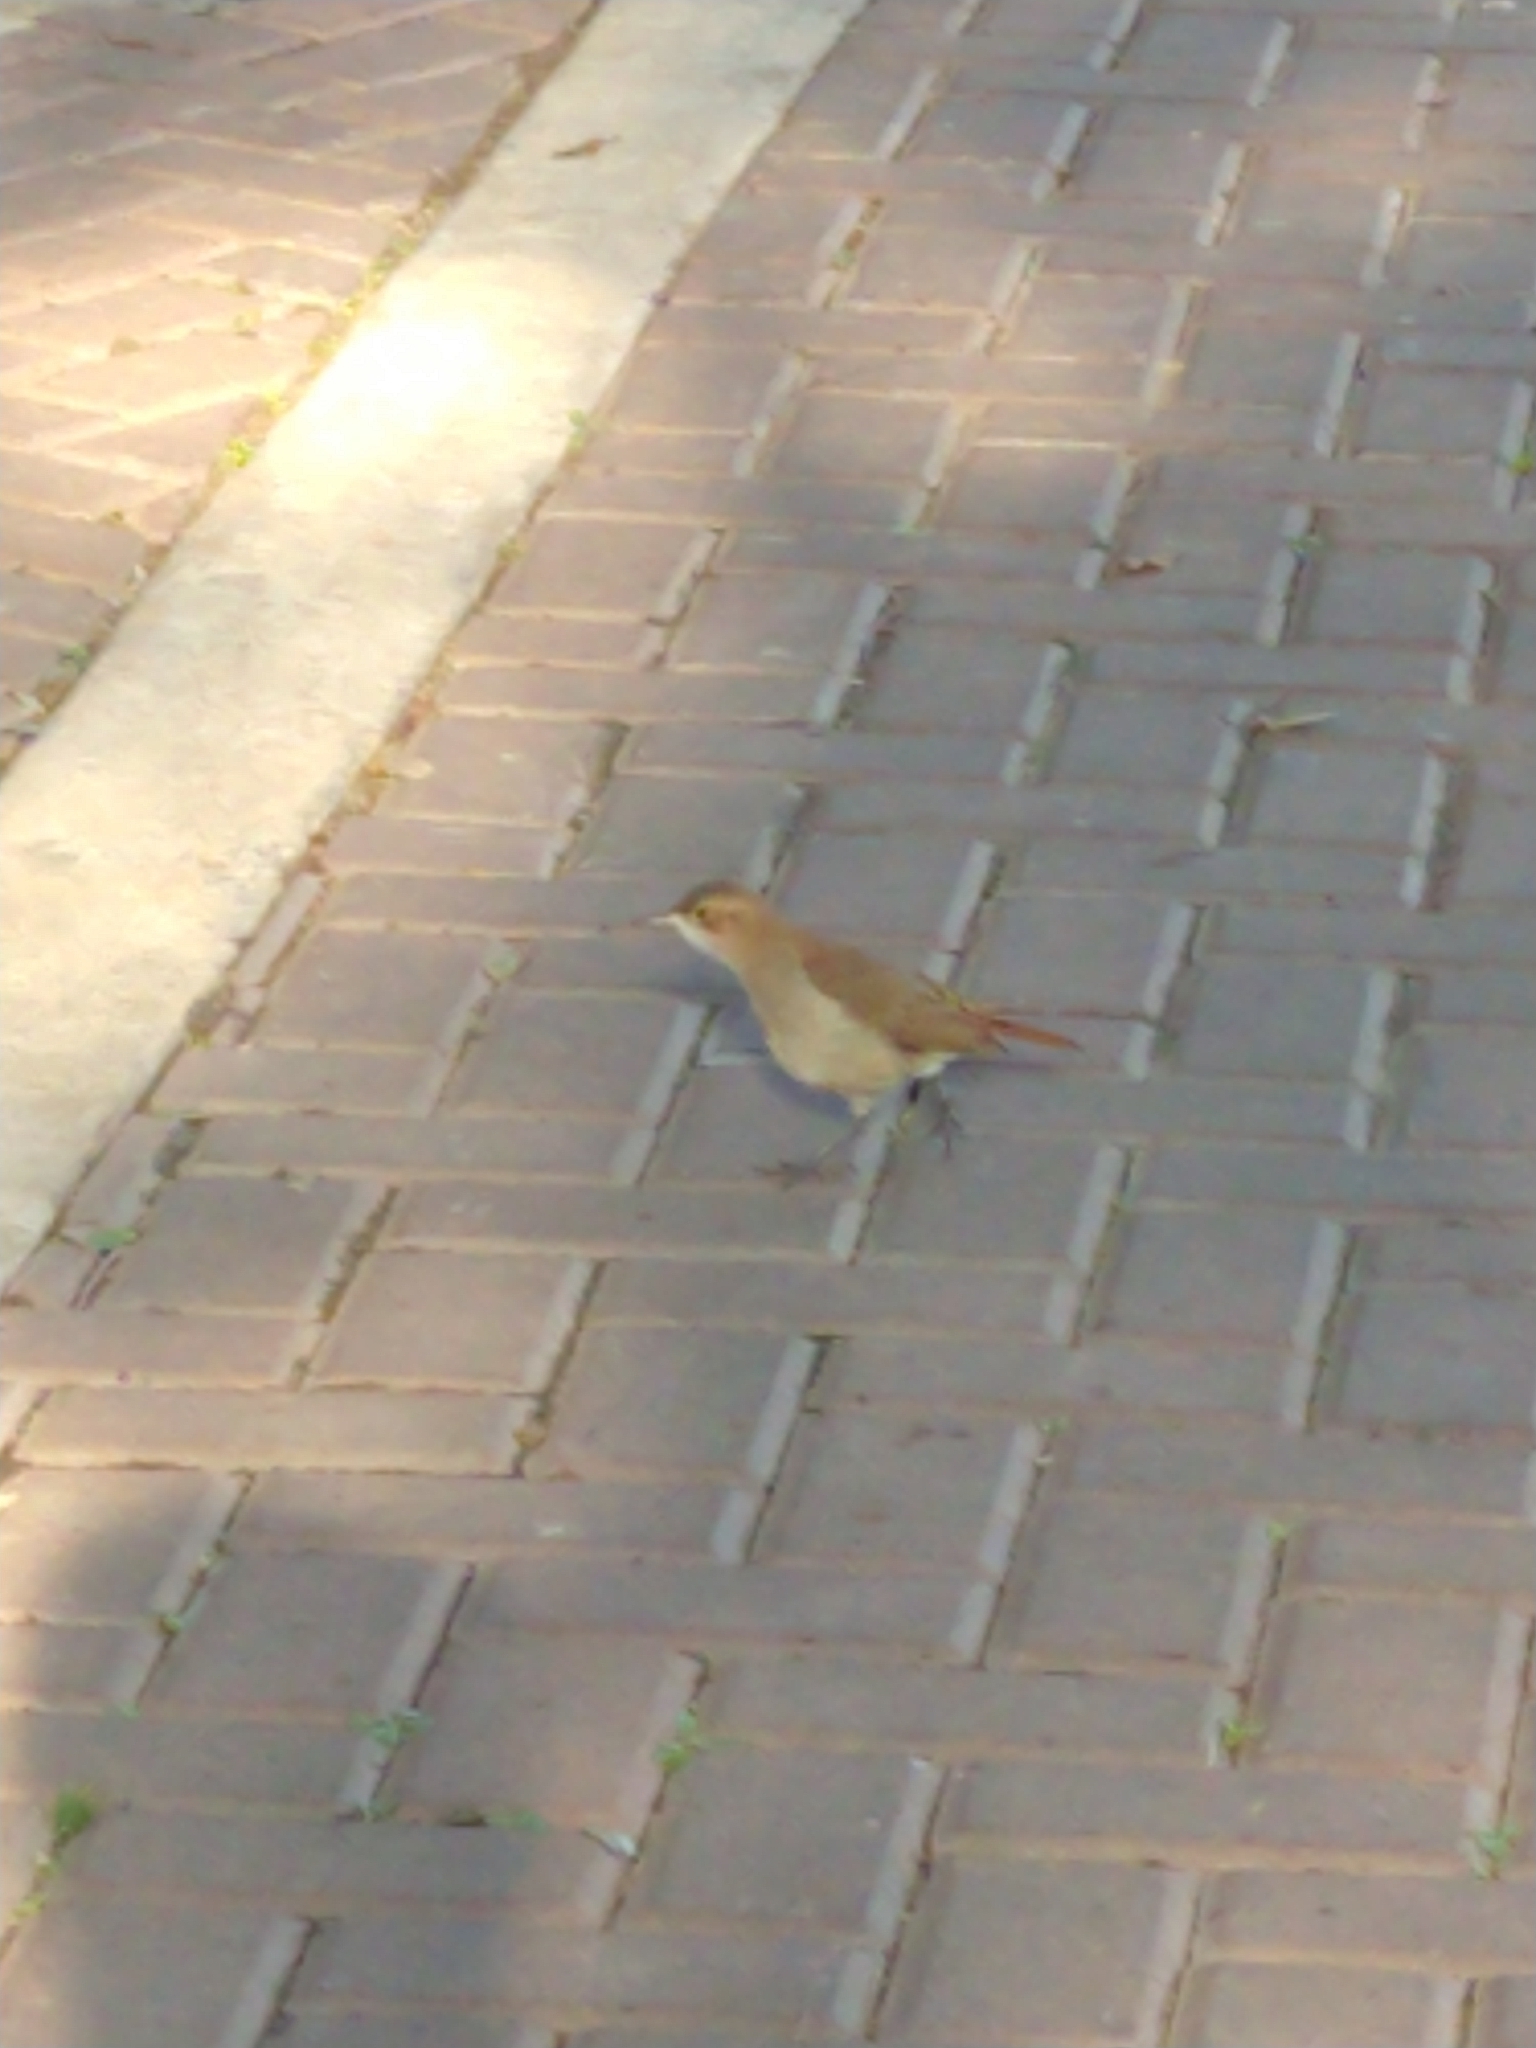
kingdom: Animalia
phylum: Chordata
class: Aves
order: Passeriformes
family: Furnariidae
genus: Furnarius
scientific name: Furnarius rufus
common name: Rufous hornero
